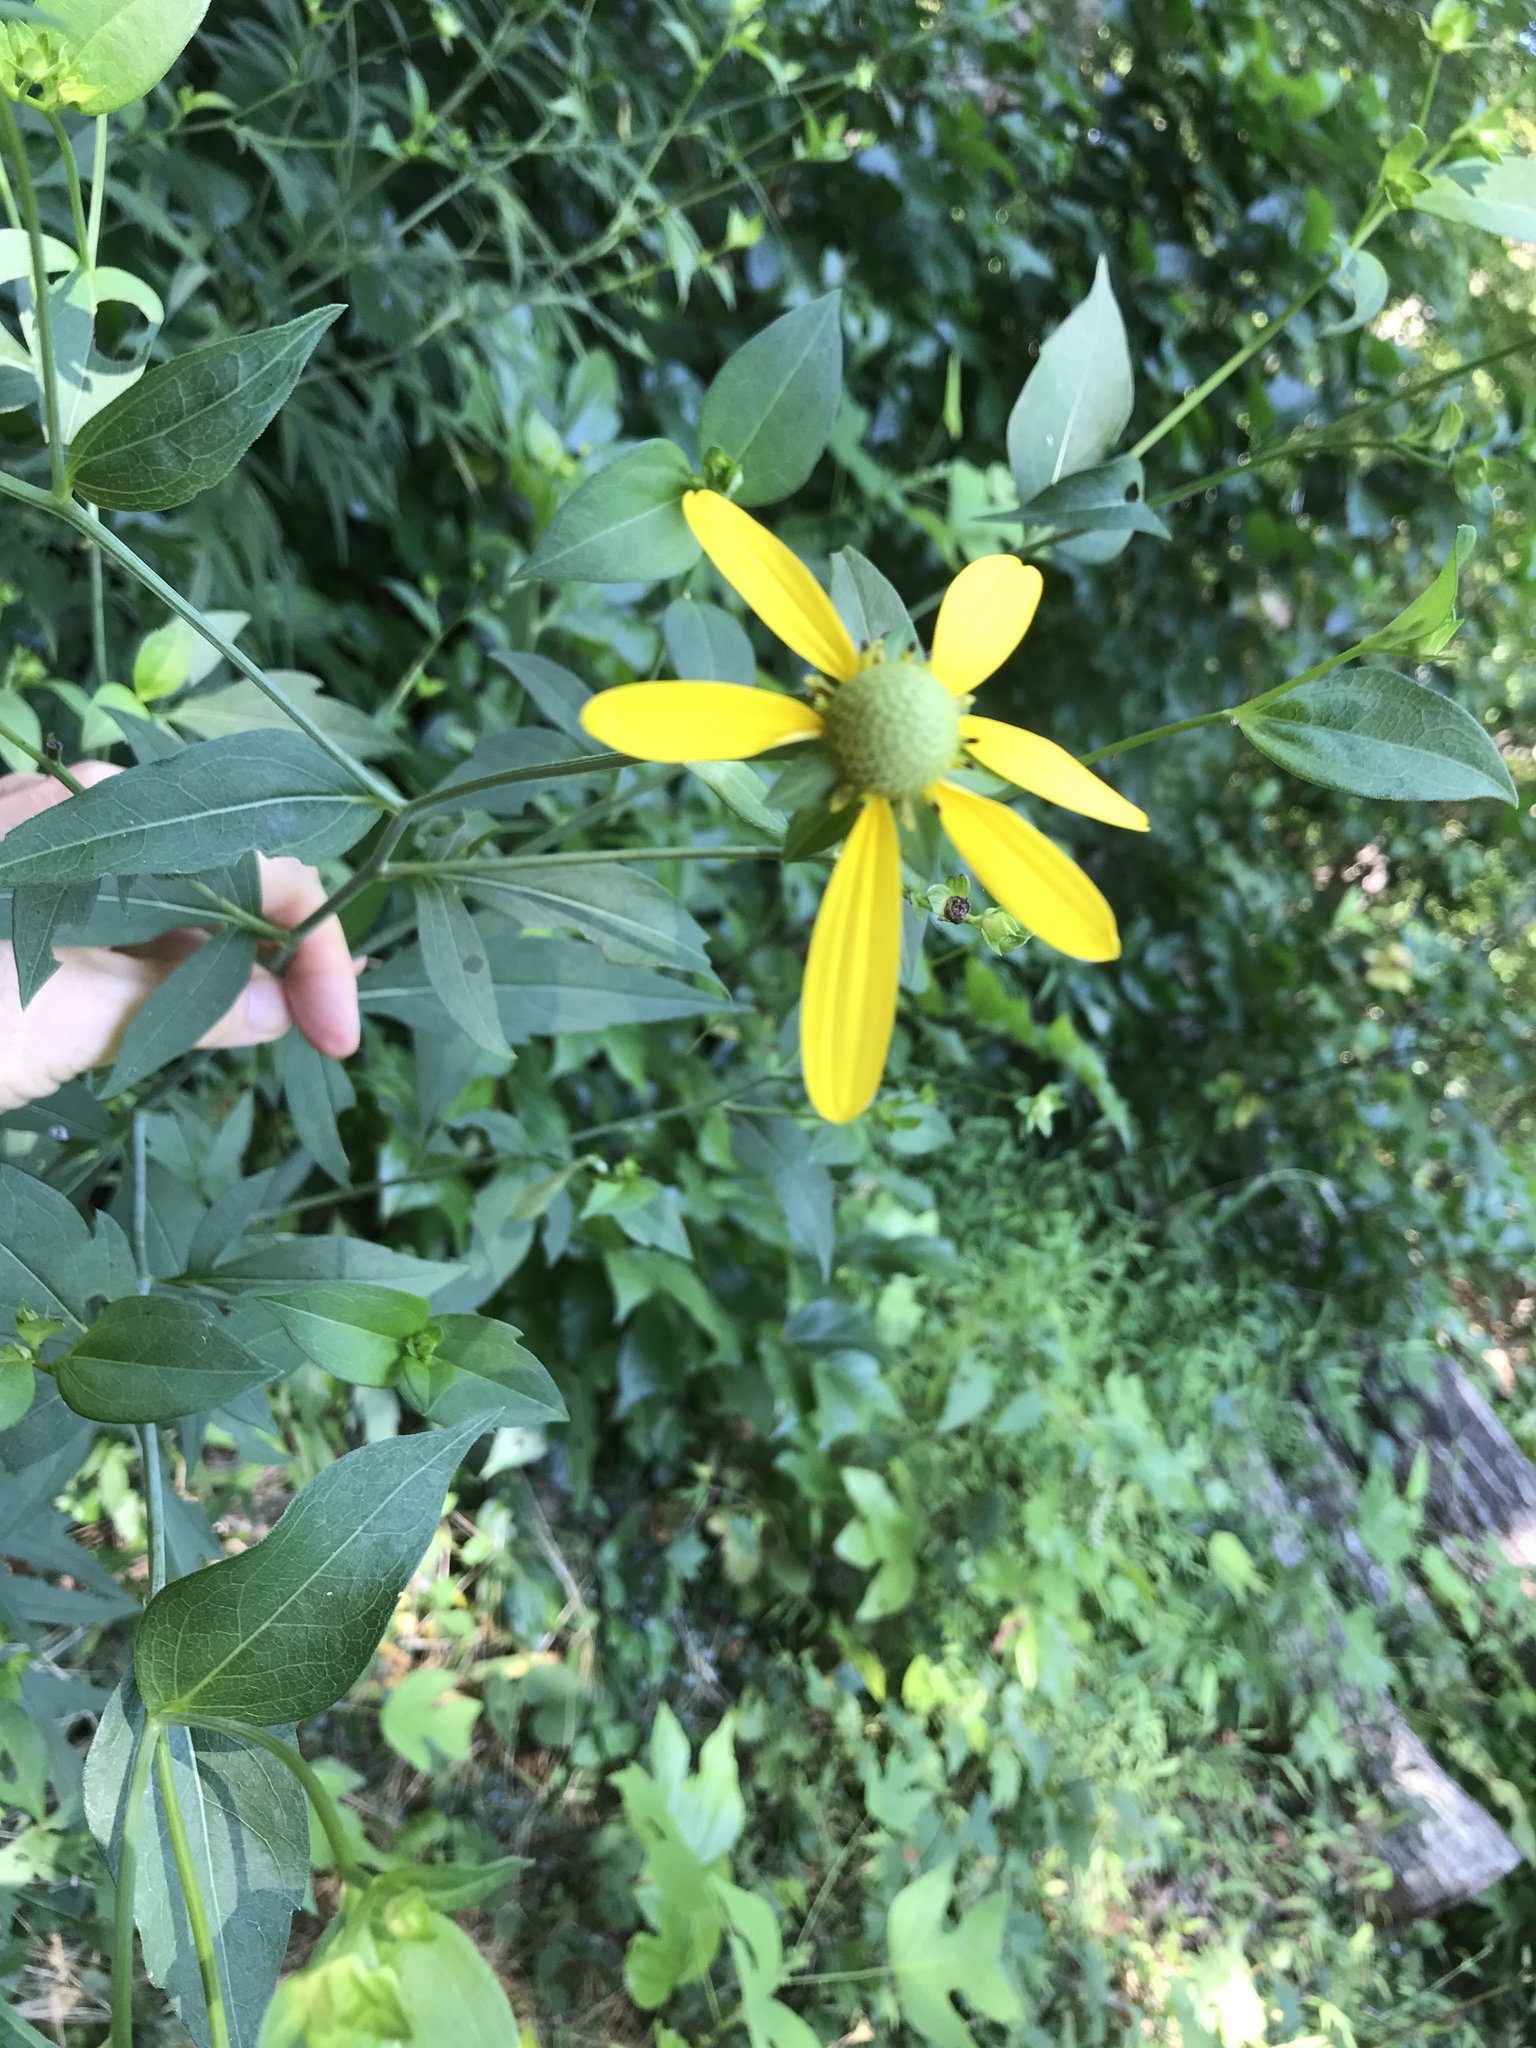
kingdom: Plantae
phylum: Tracheophyta
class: Magnoliopsida
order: Asterales
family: Asteraceae
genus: Rudbeckia
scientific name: Rudbeckia laciniata
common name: Coneflower
